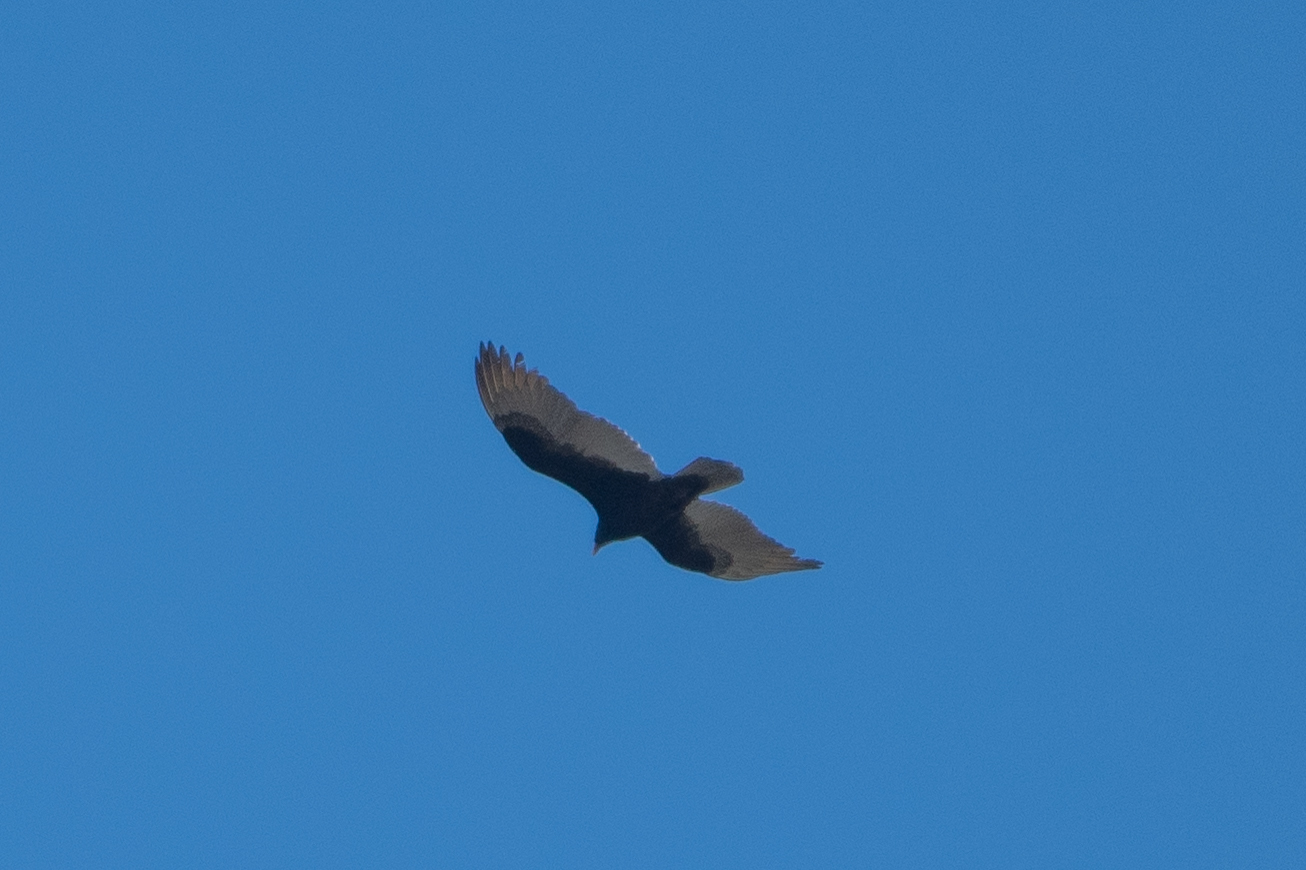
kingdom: Animalia
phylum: Chordata
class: Aves
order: Accipitriformes
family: Cathartidae
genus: Cathartes
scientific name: Cathartes aura
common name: Turkey vulture
